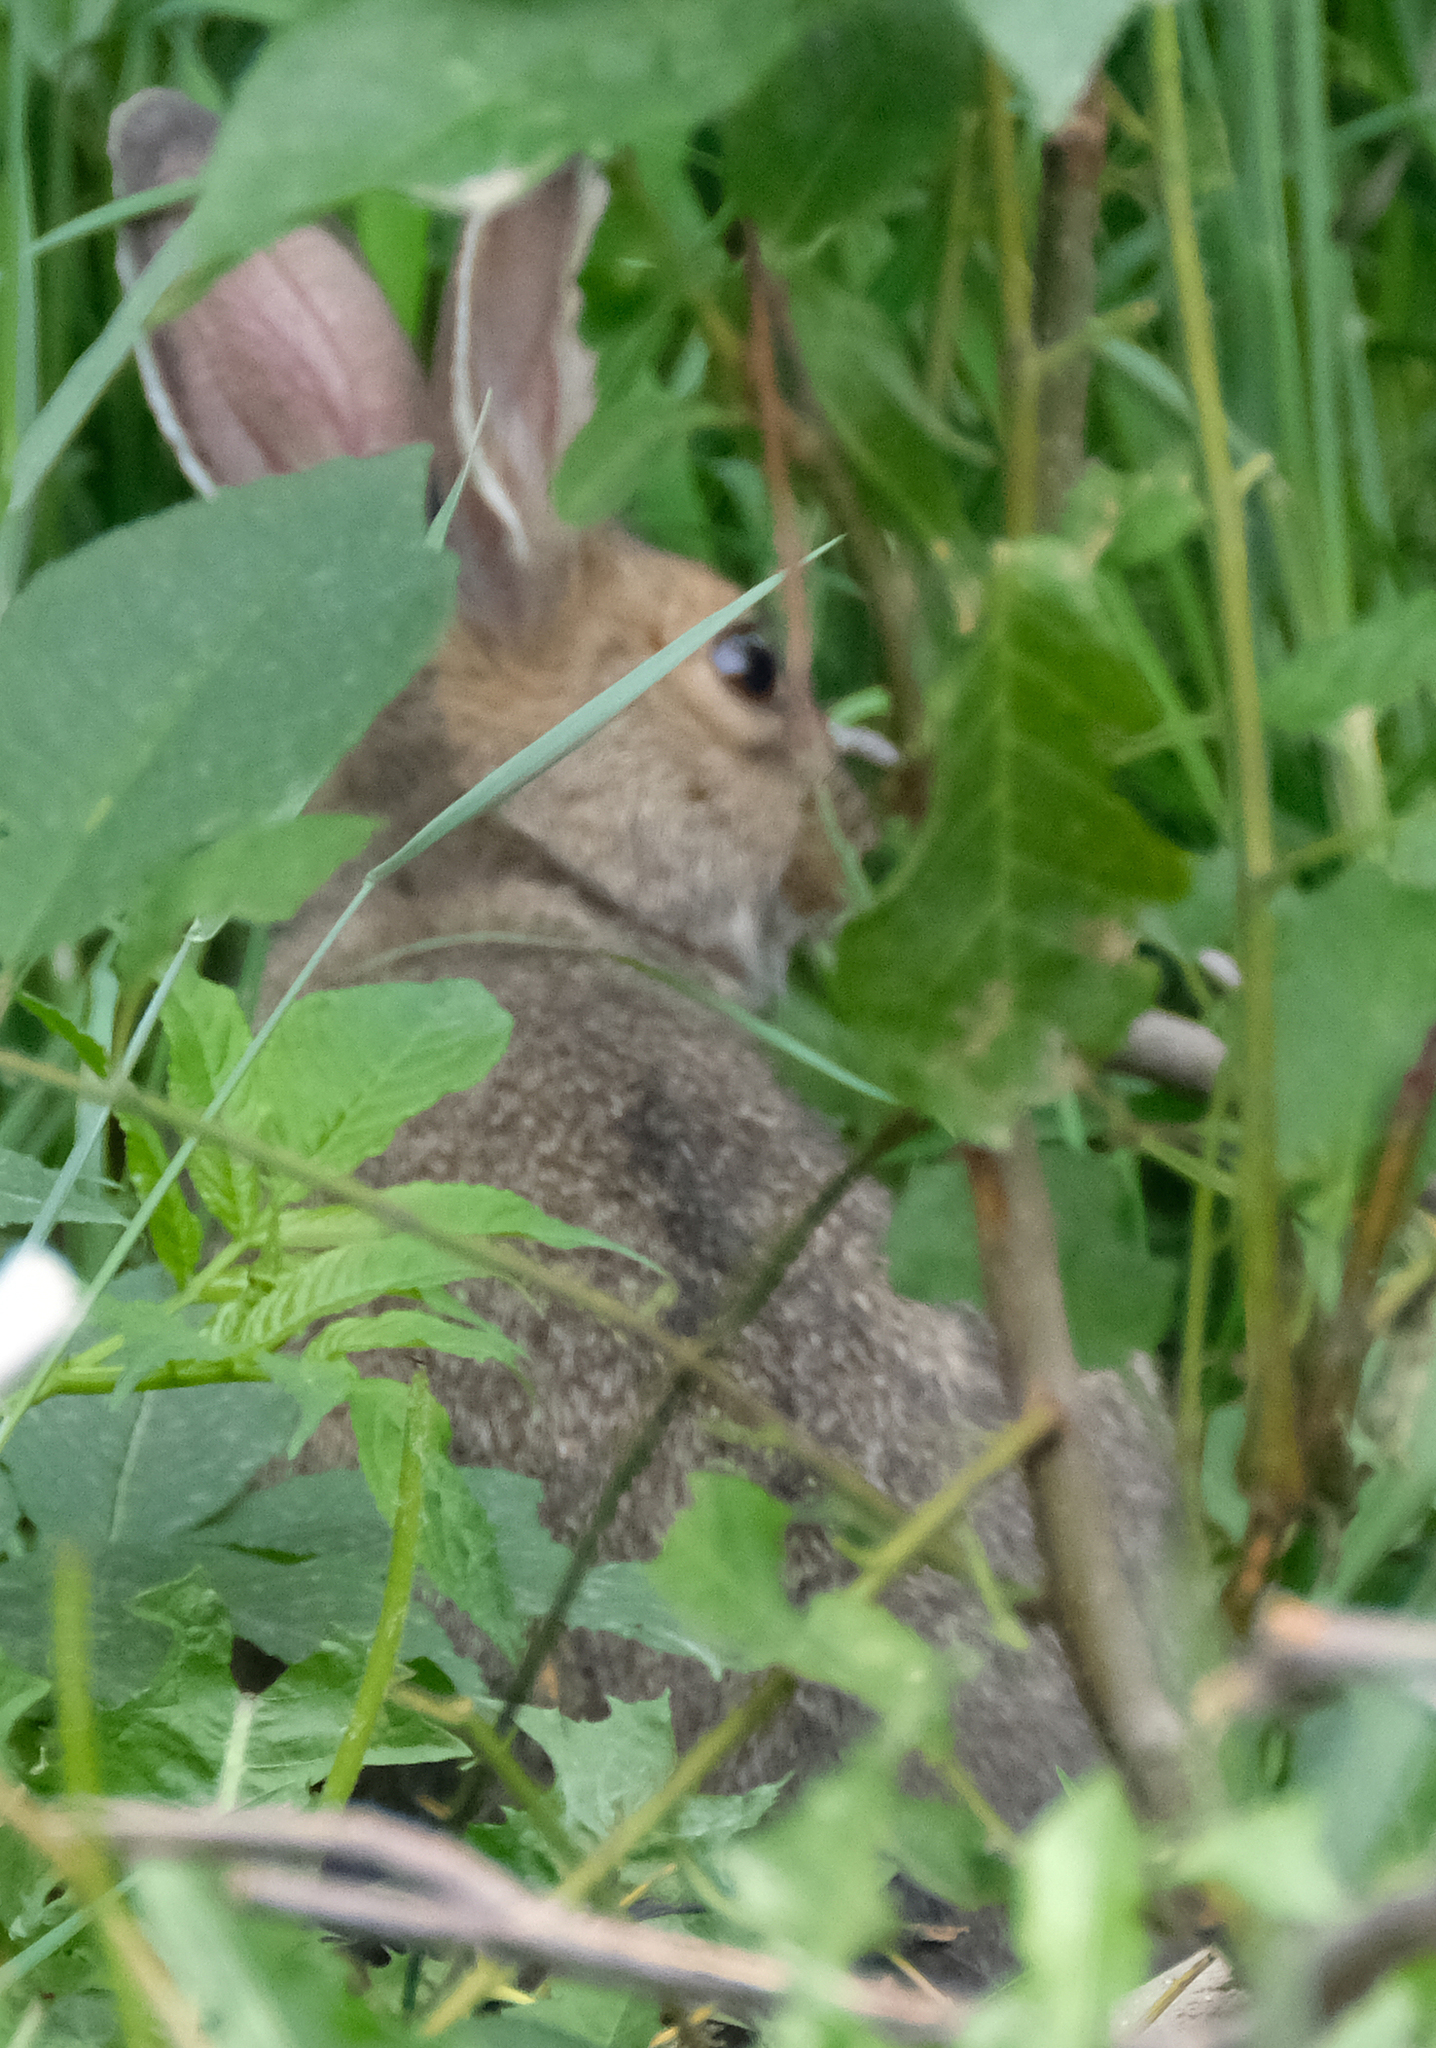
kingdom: Animalia
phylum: Chordata
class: Mammalia
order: Lagomorpha
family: Leporidae
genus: Lepus
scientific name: Lepus americanus
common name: Snowshoe hare
